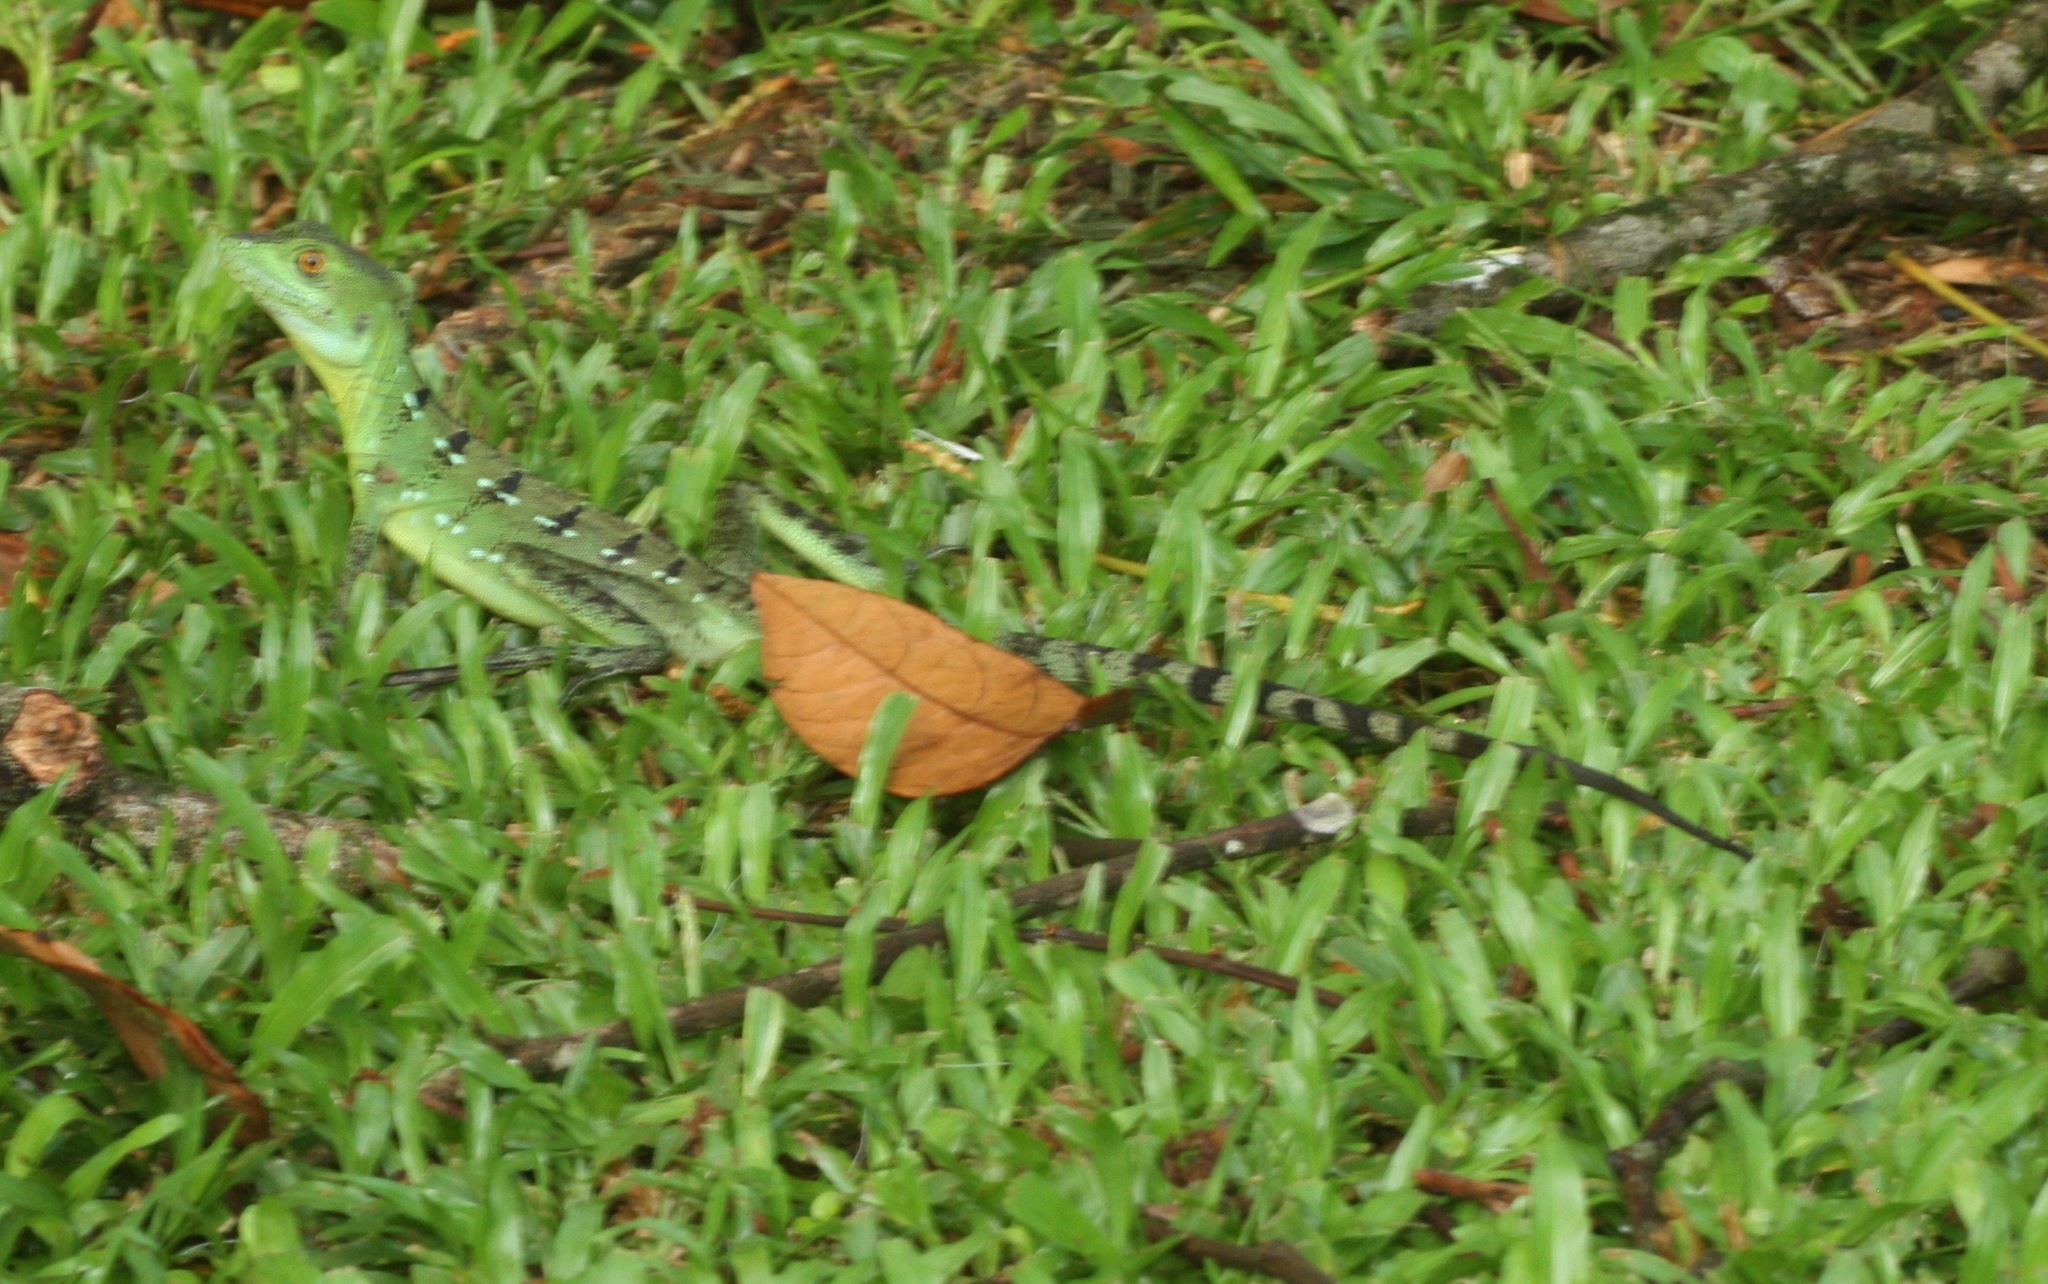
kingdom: Animalia
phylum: Chordata
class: Squamata
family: Corytophanidae
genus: Basiliscus
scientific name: Basiliscus plumifrons
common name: Green basilisk
